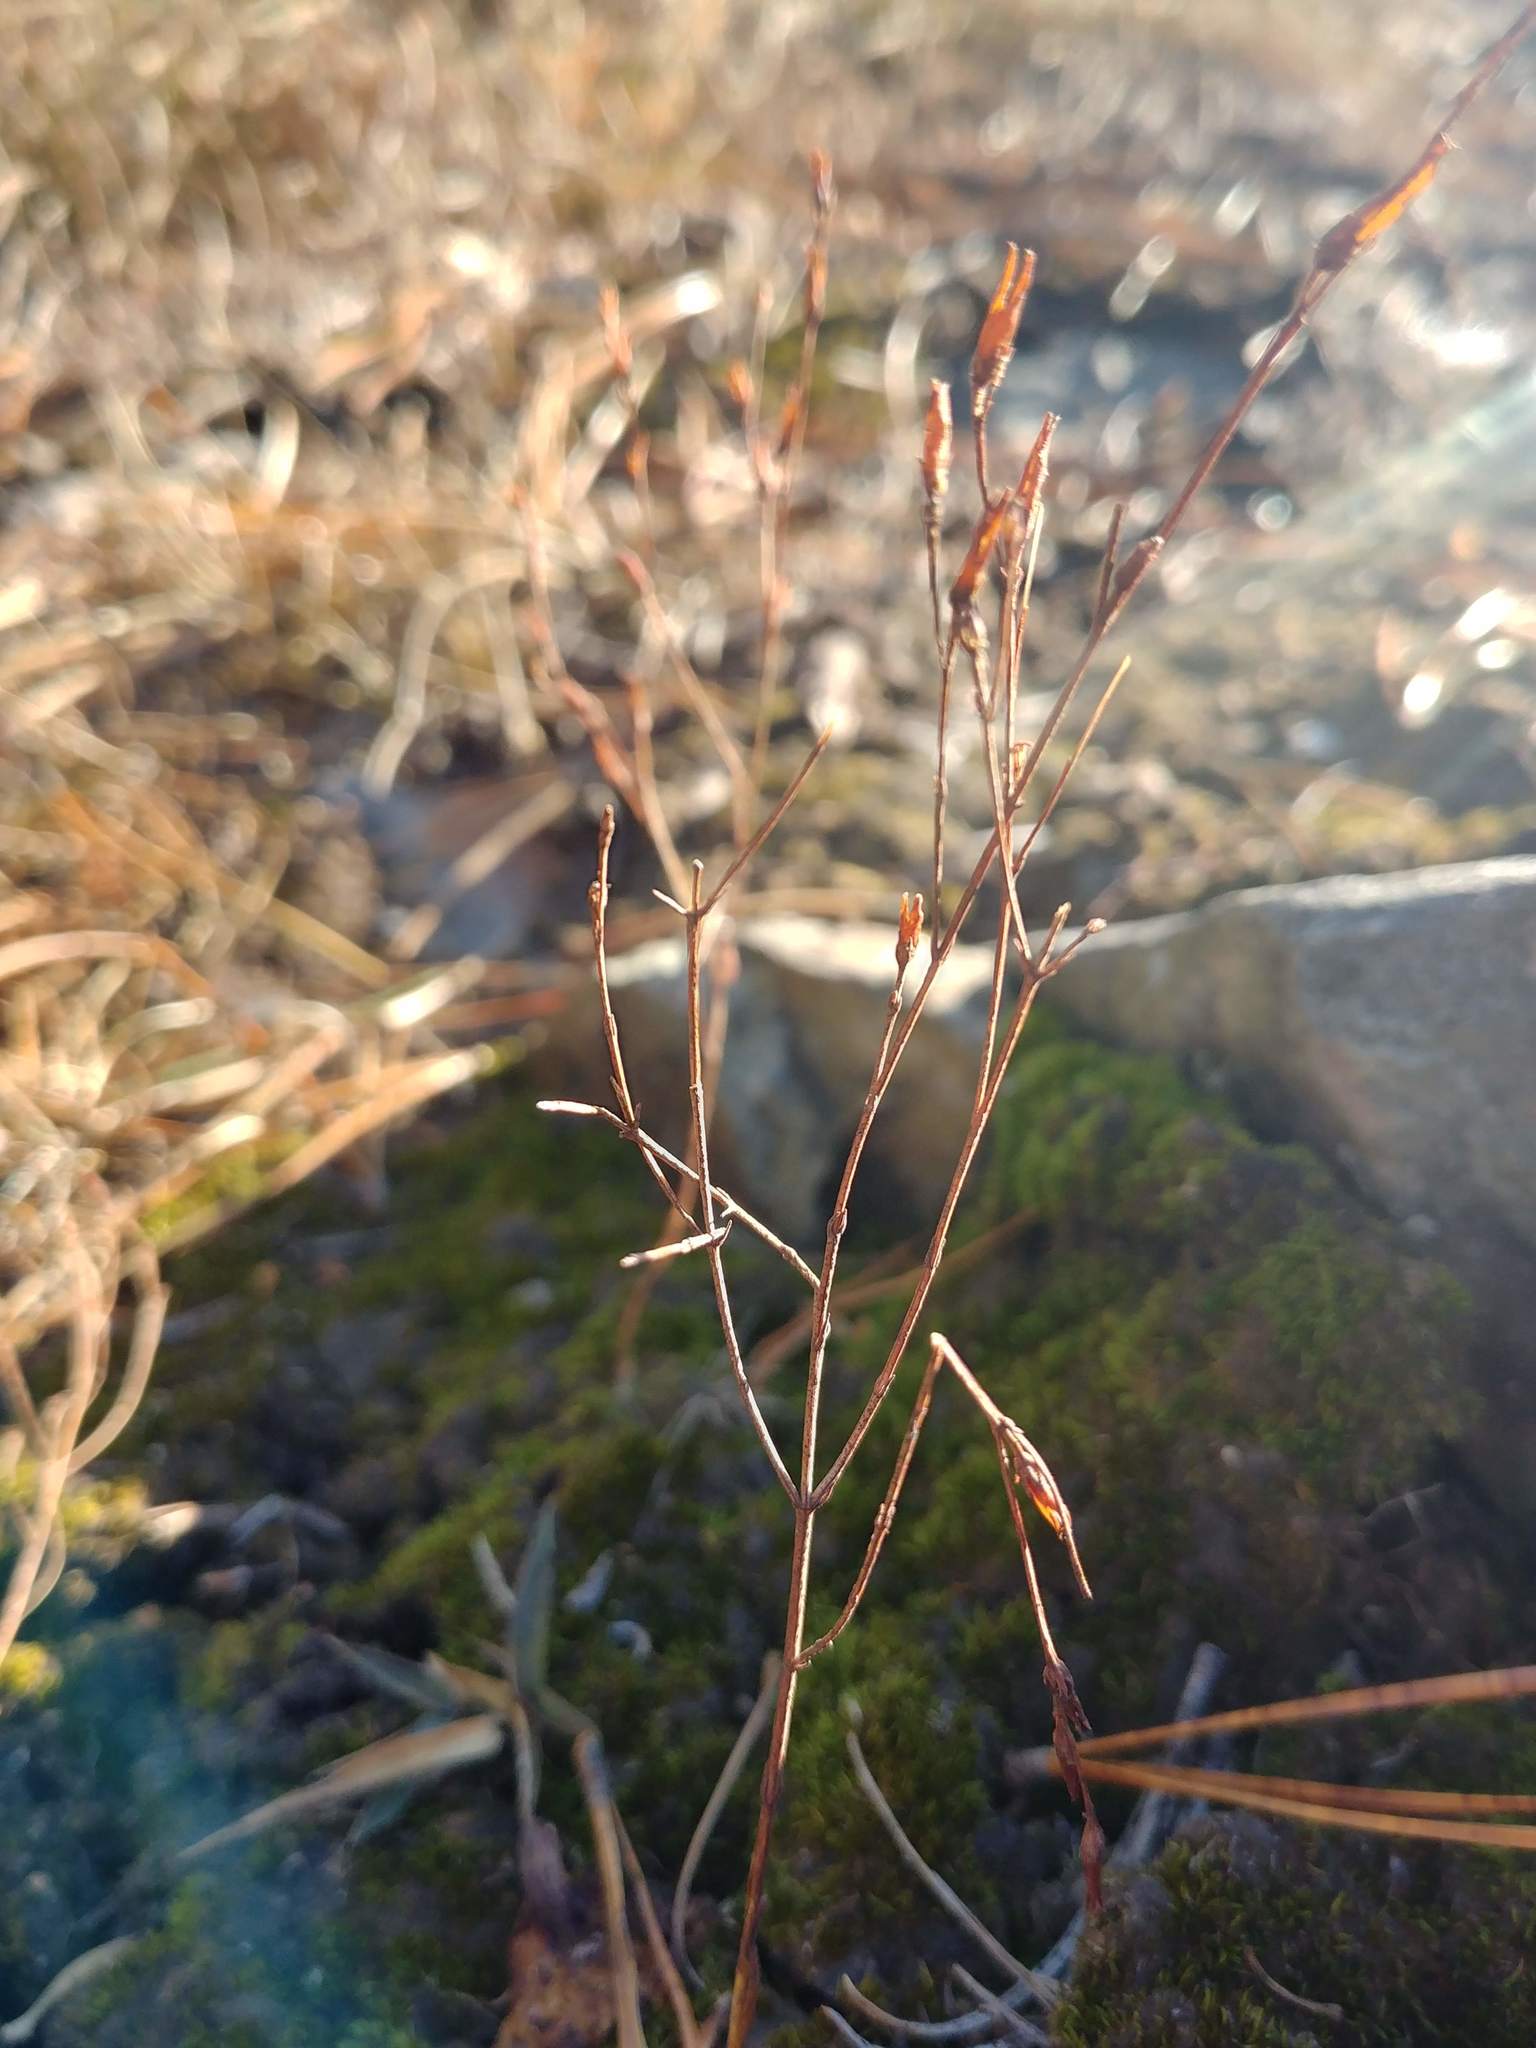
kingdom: Plantae
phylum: Tracheophyta
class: Magnoliopsida
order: Malpighiales
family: Hypericaceae
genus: Hypericum
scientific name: Hypericum gentianoides
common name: Gentian-leaved st. john's-wort
